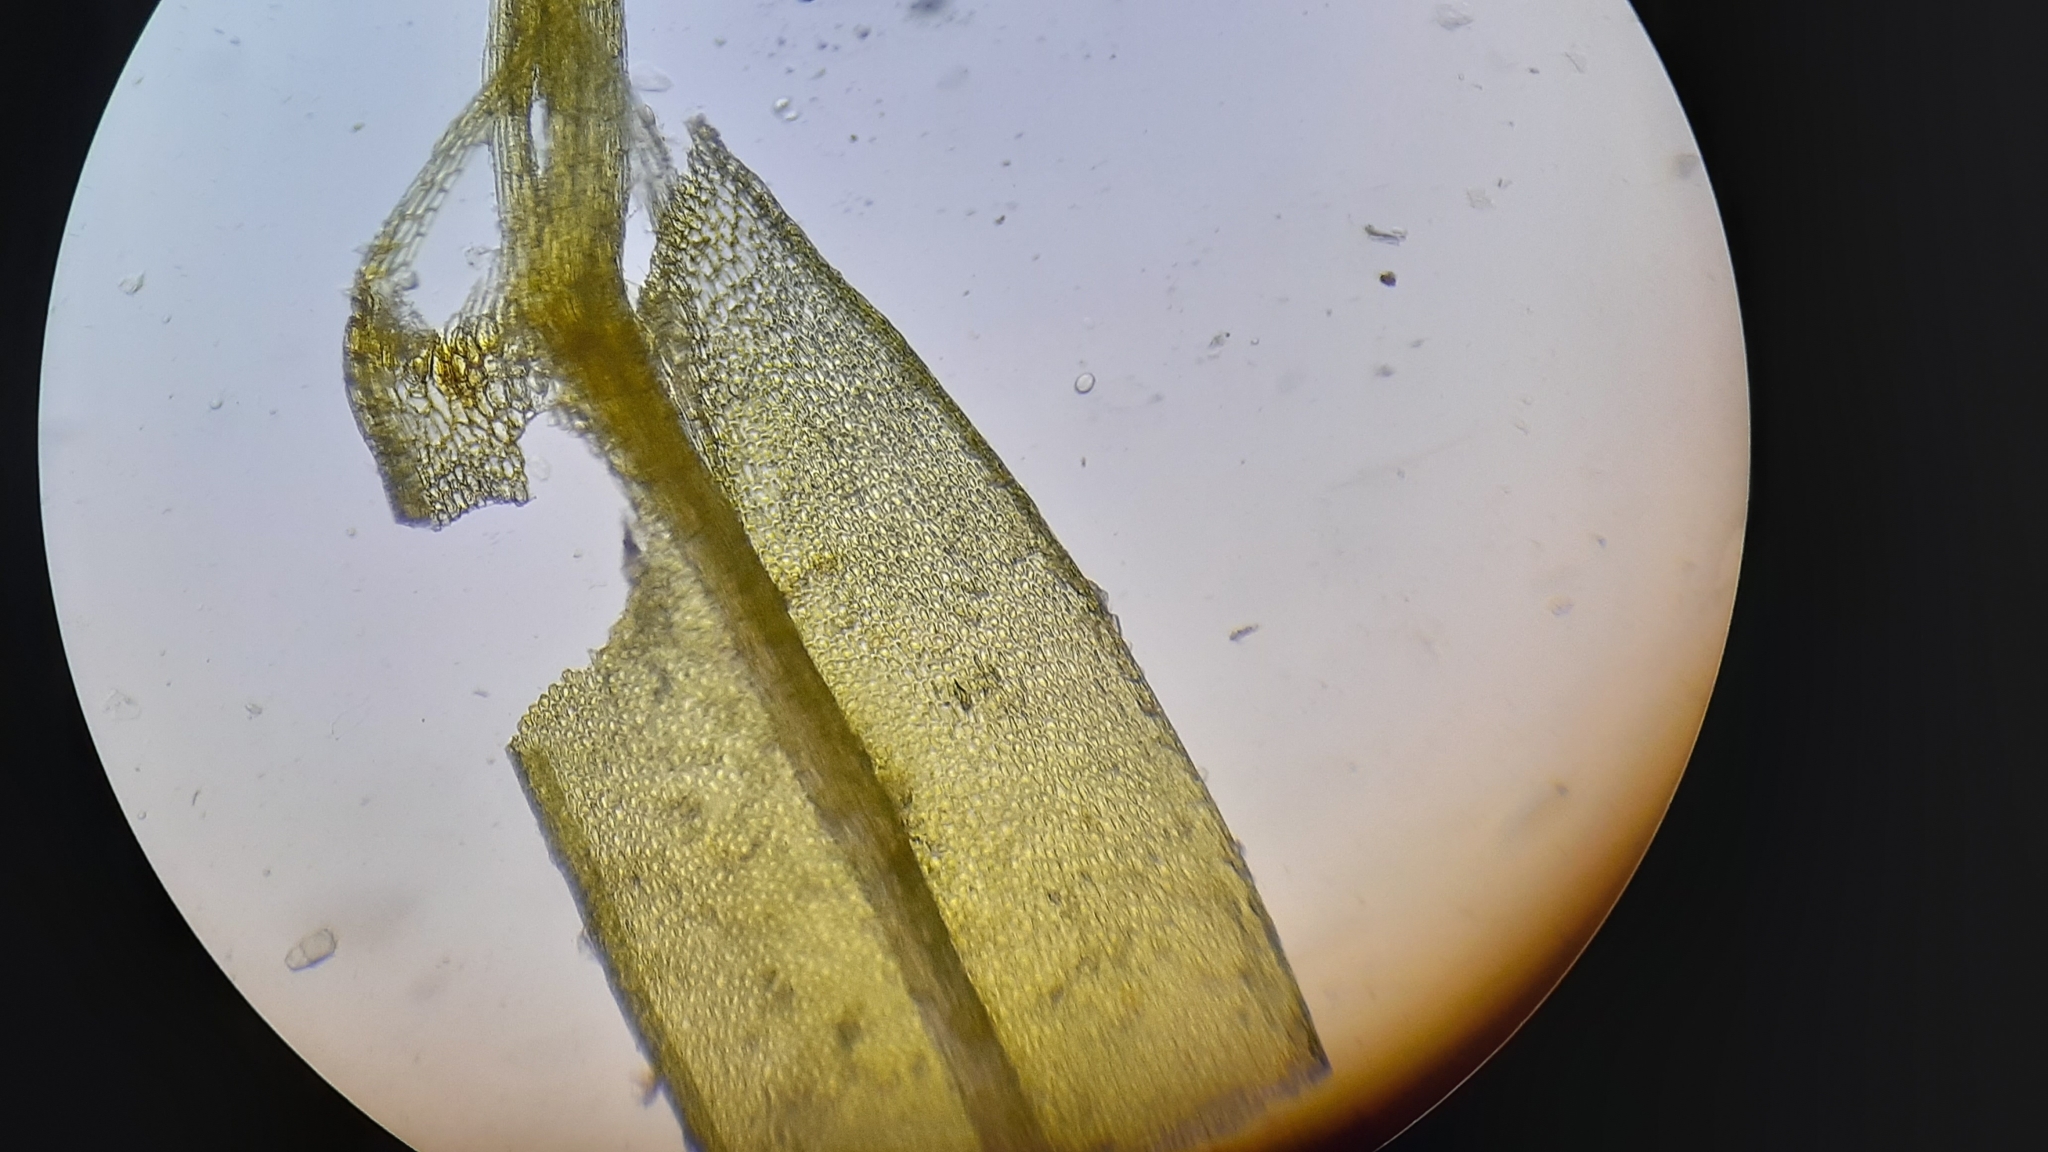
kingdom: Plantae
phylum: Bryophyta
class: Bryopsida
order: Aulacomniales
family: Aulacomniaceae
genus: Aulacomnium
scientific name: Aulacomnium palustre
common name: Bog groove-moss
